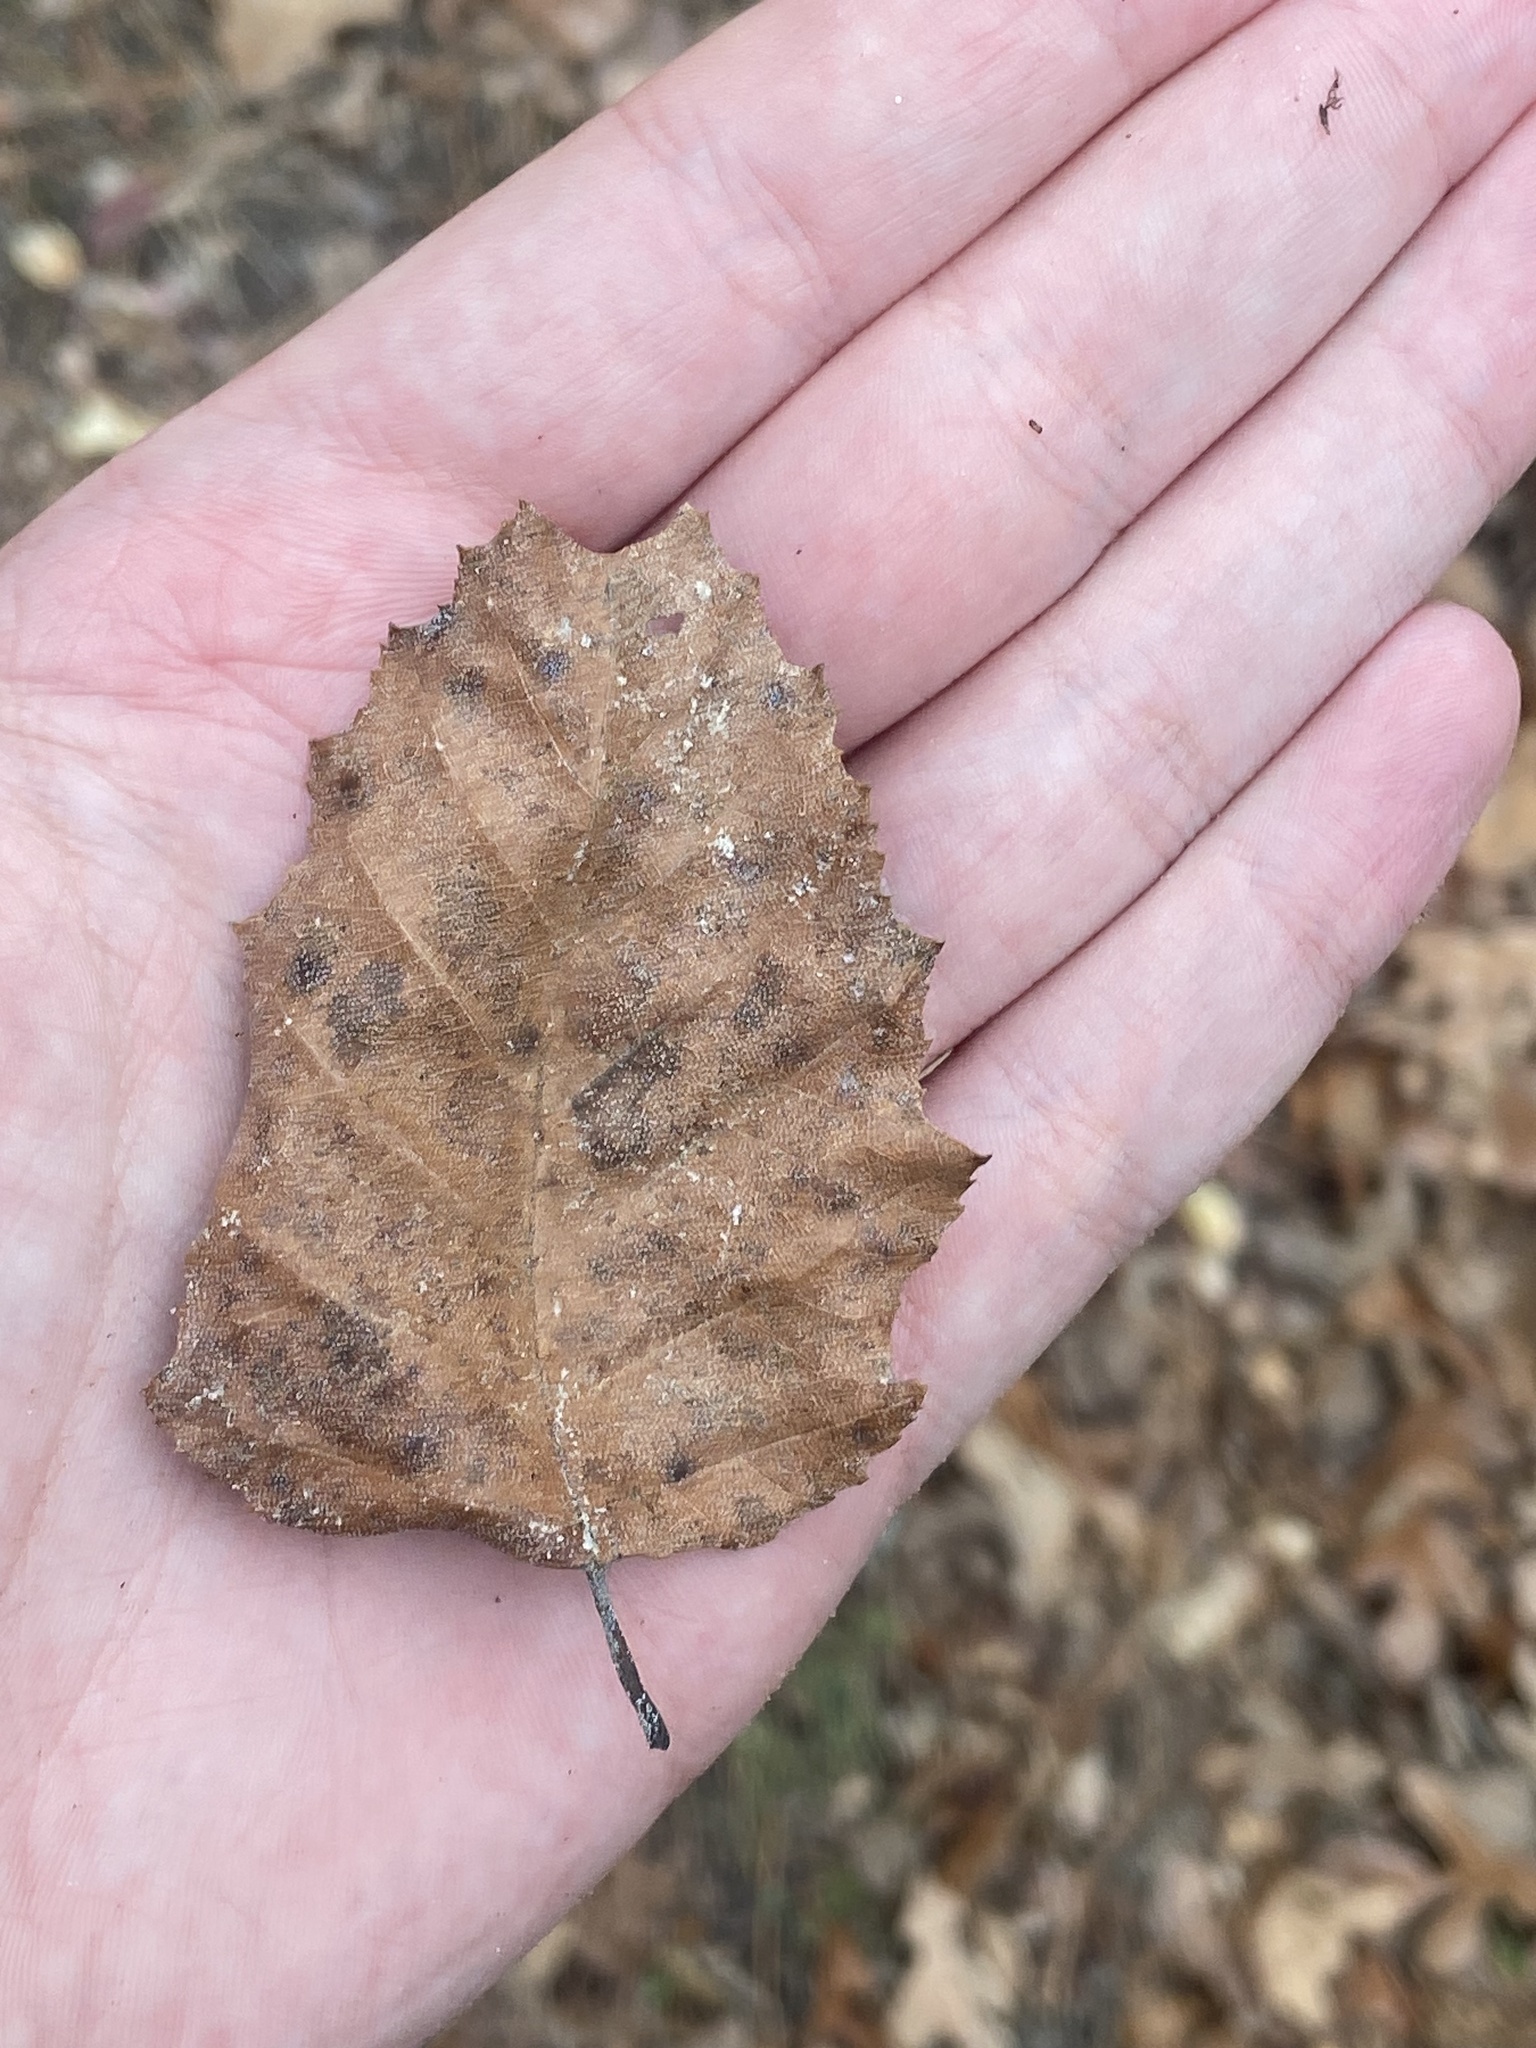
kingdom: Plantae
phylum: Tracheophyta
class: Magnoliopsida
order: Fagales
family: Betulaceae
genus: Betula
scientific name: Betula nigra
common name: Black birch
